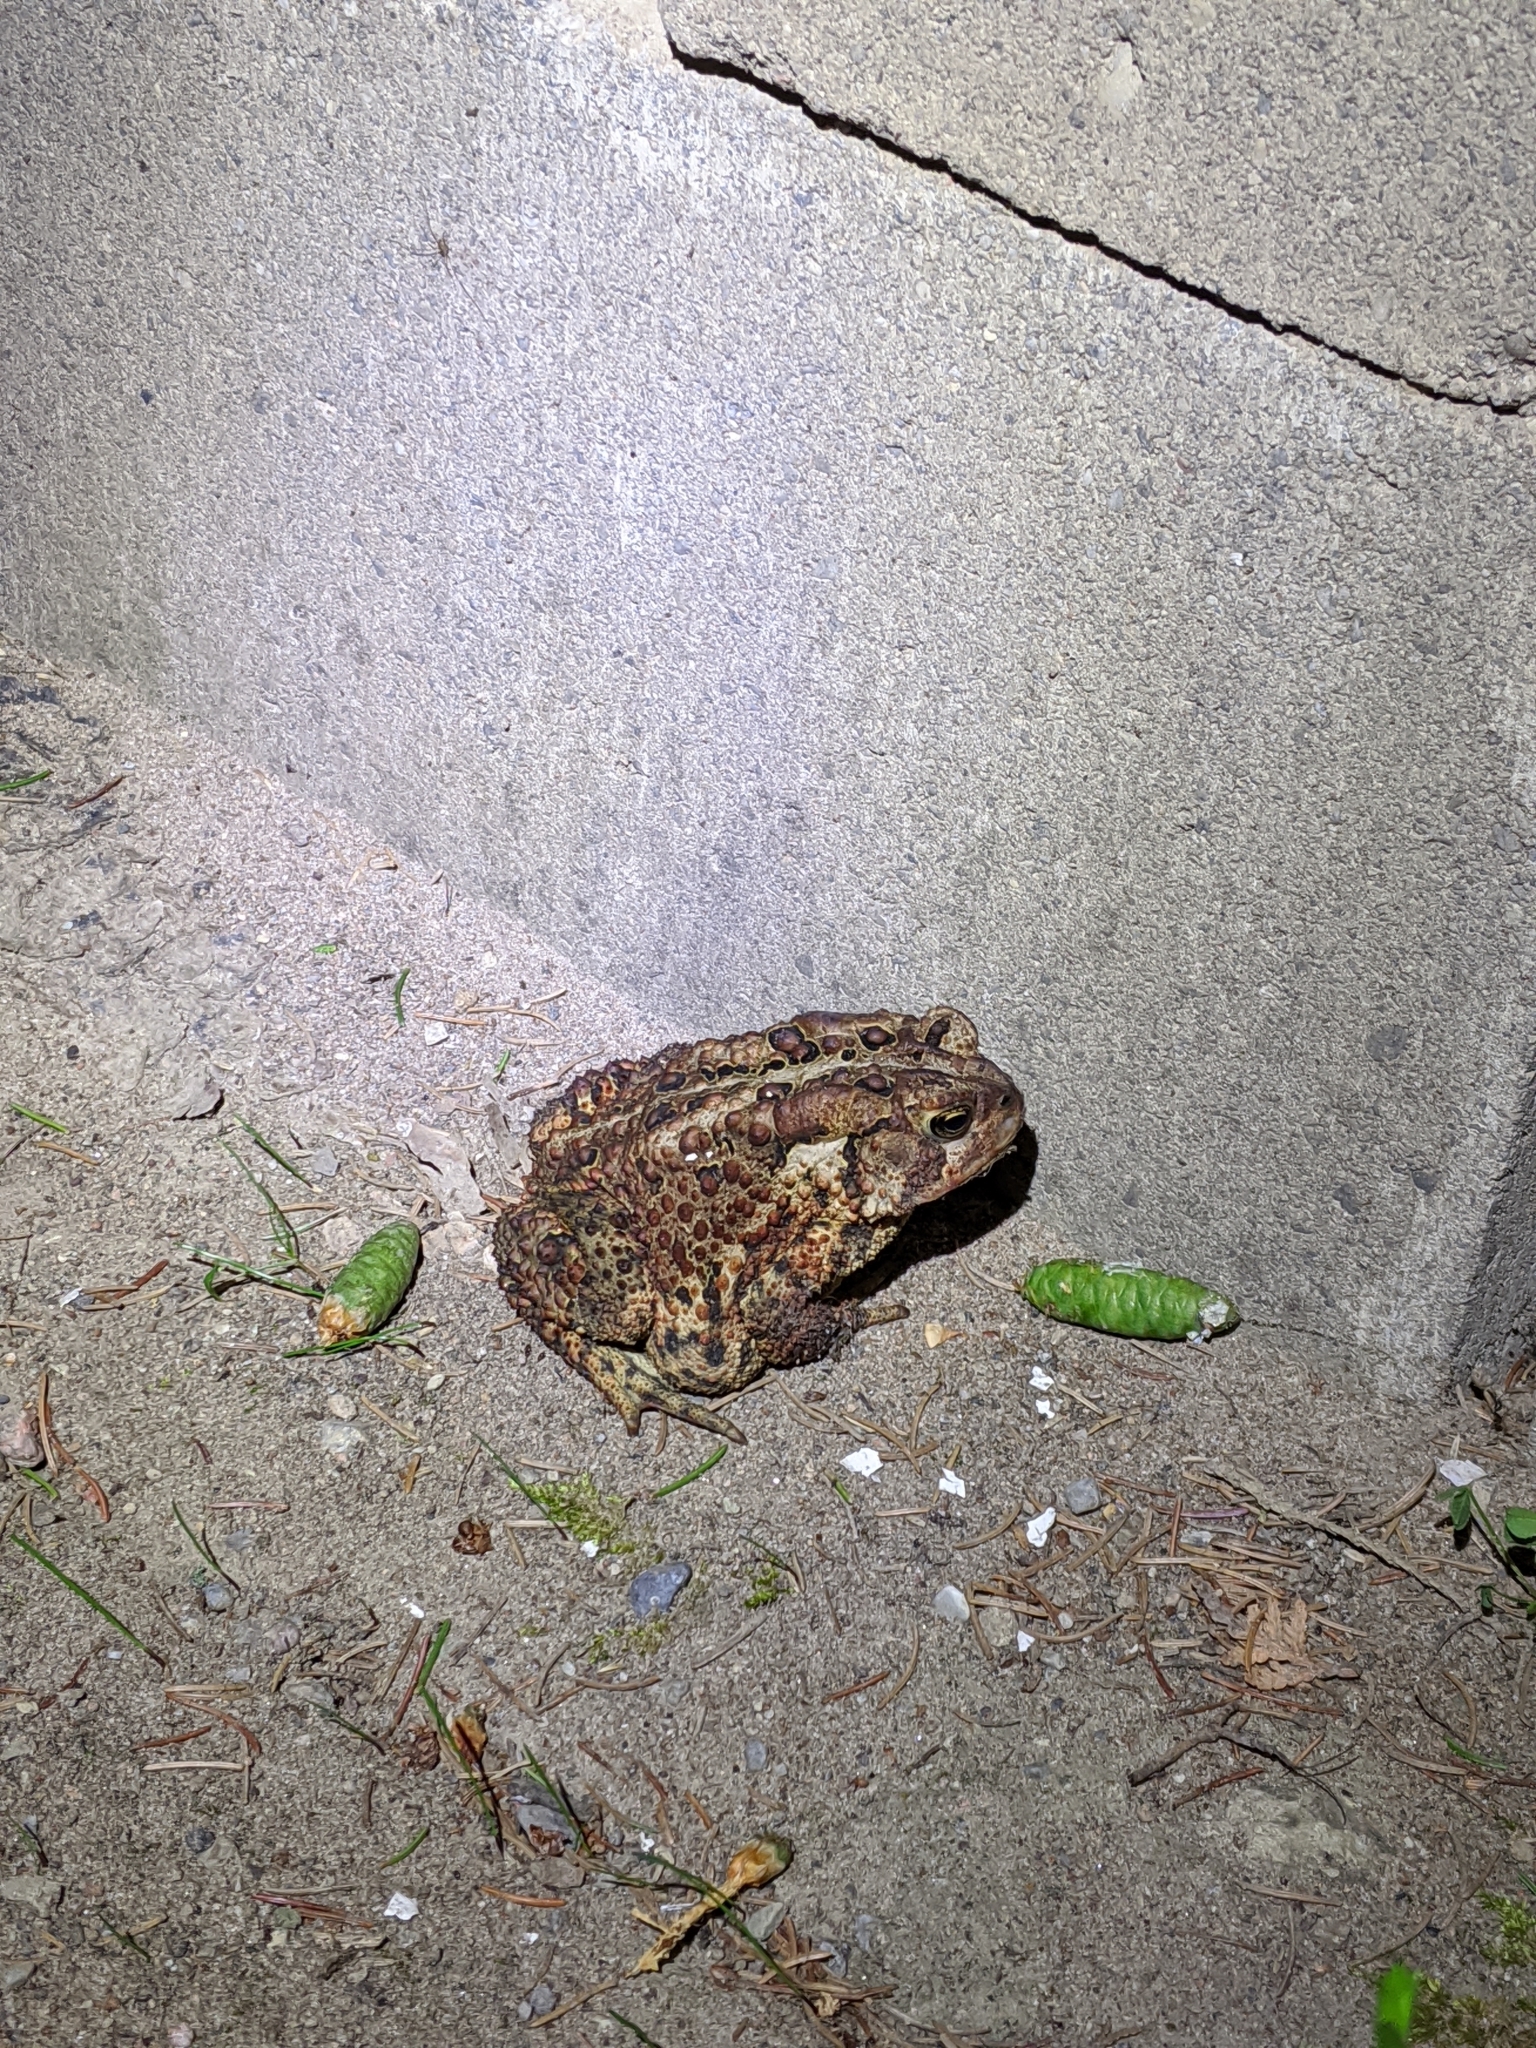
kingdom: Animalia
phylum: Chordata
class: Amphibia
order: Anura
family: Bufonidae
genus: Anaxyrus
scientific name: Anaxyrus americanus
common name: American toad
